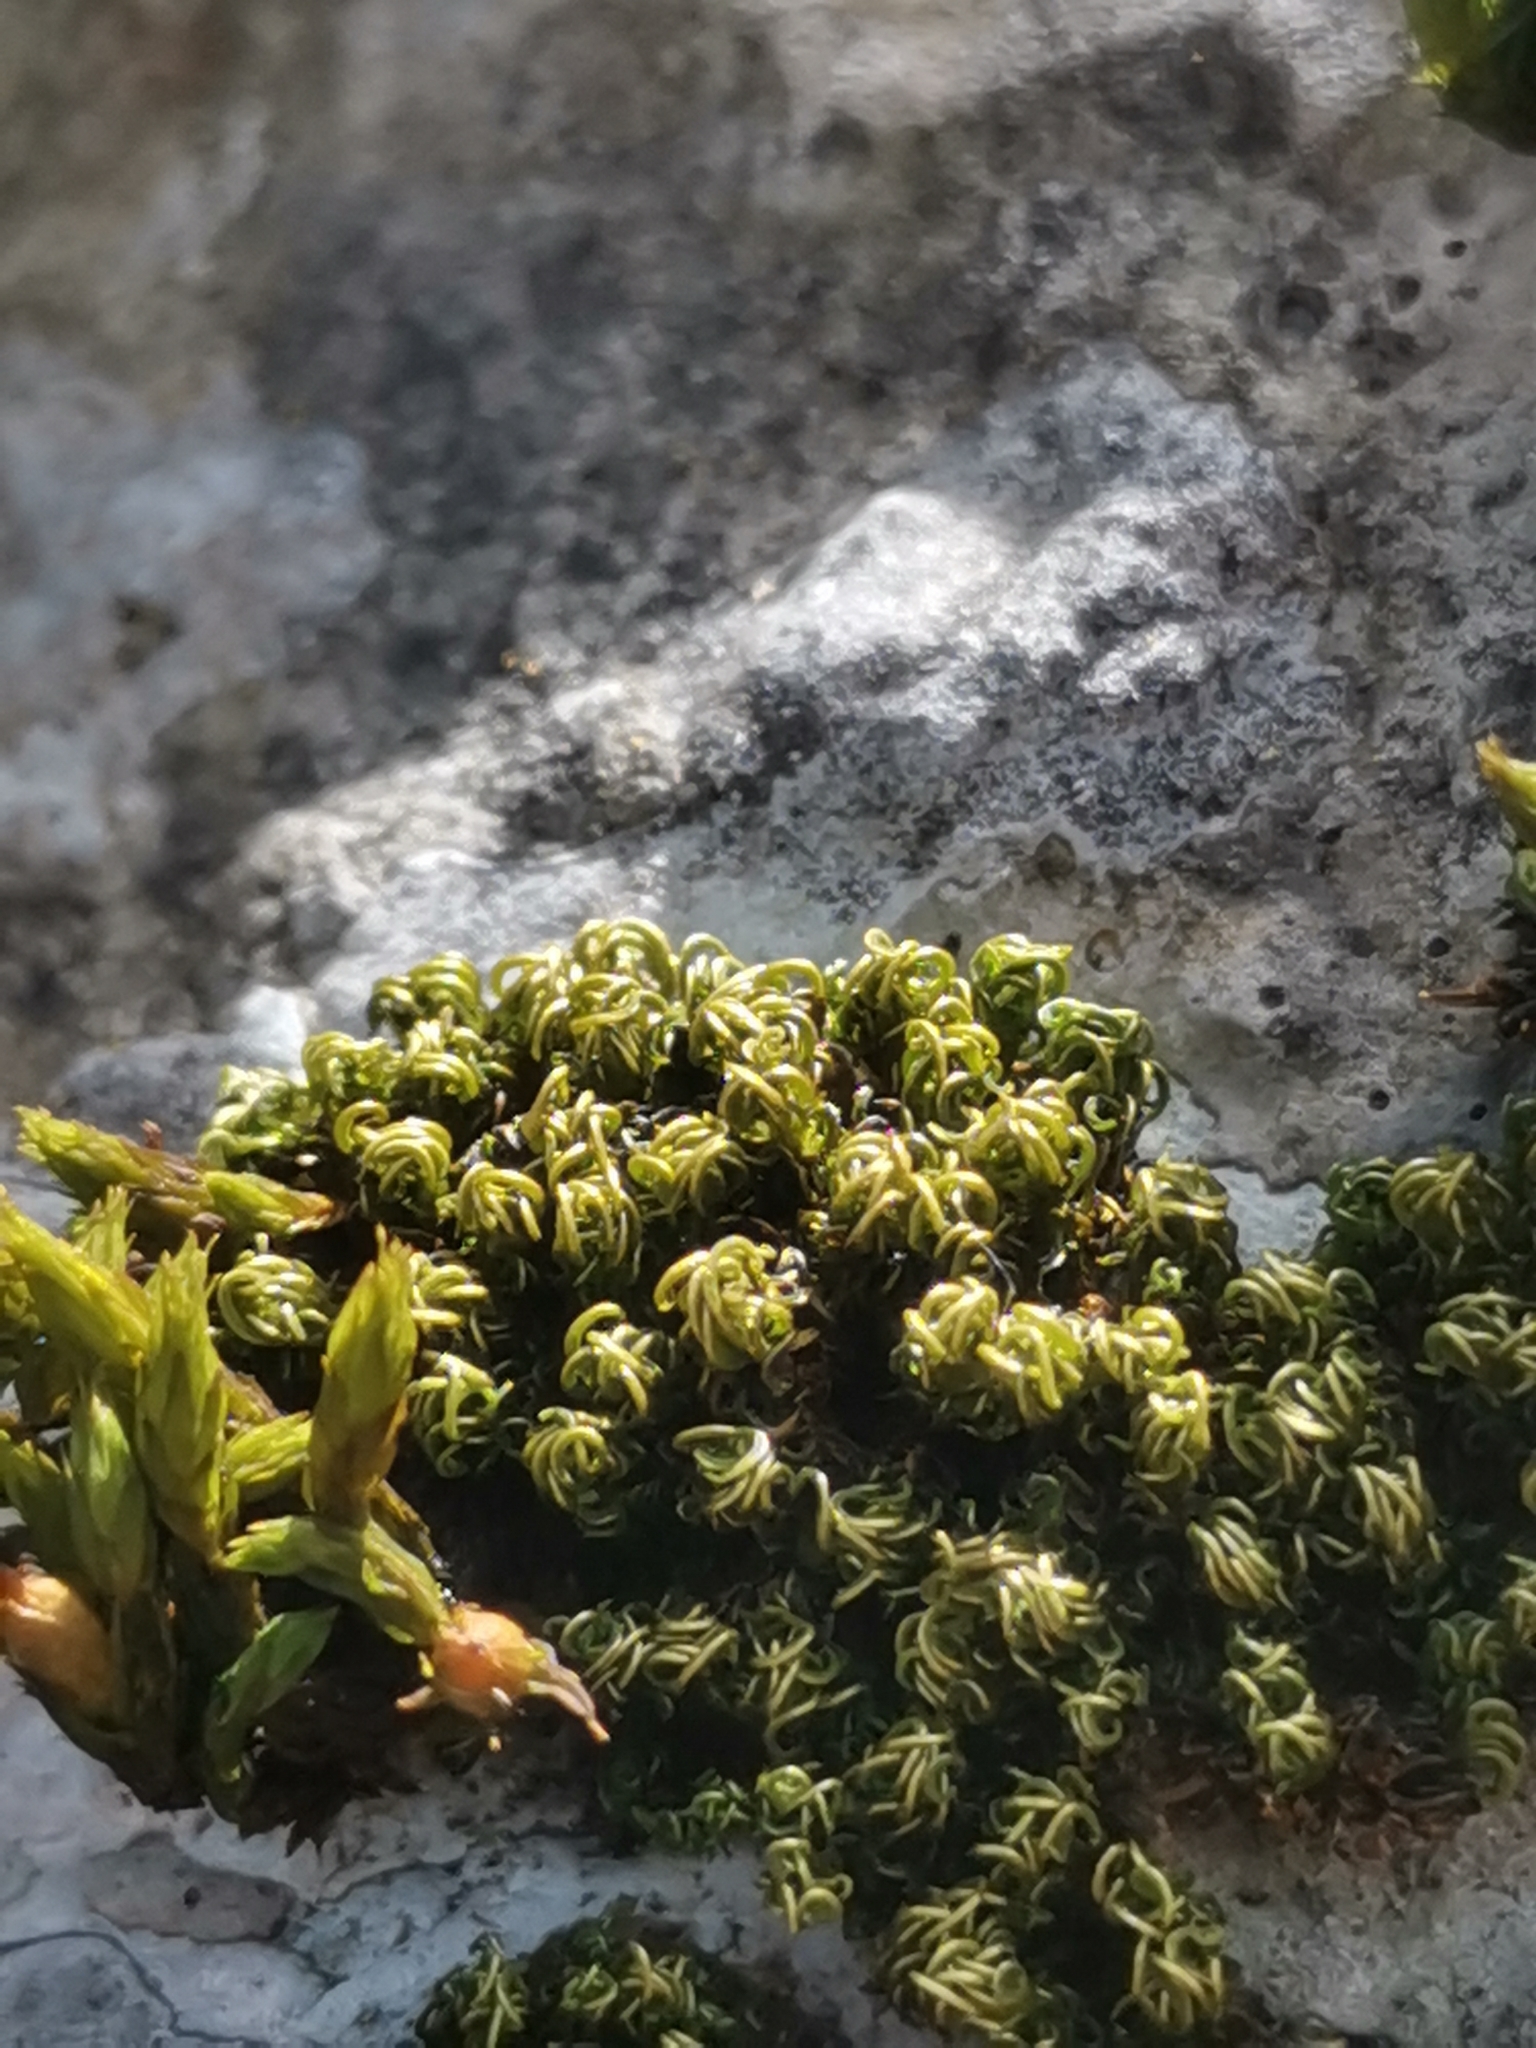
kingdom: Plantae
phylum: Bryophyta
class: Bryopsida
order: Pottiales
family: Pottiaceae
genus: Tortella
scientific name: Tortella nitida
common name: Neat crisp-moss
